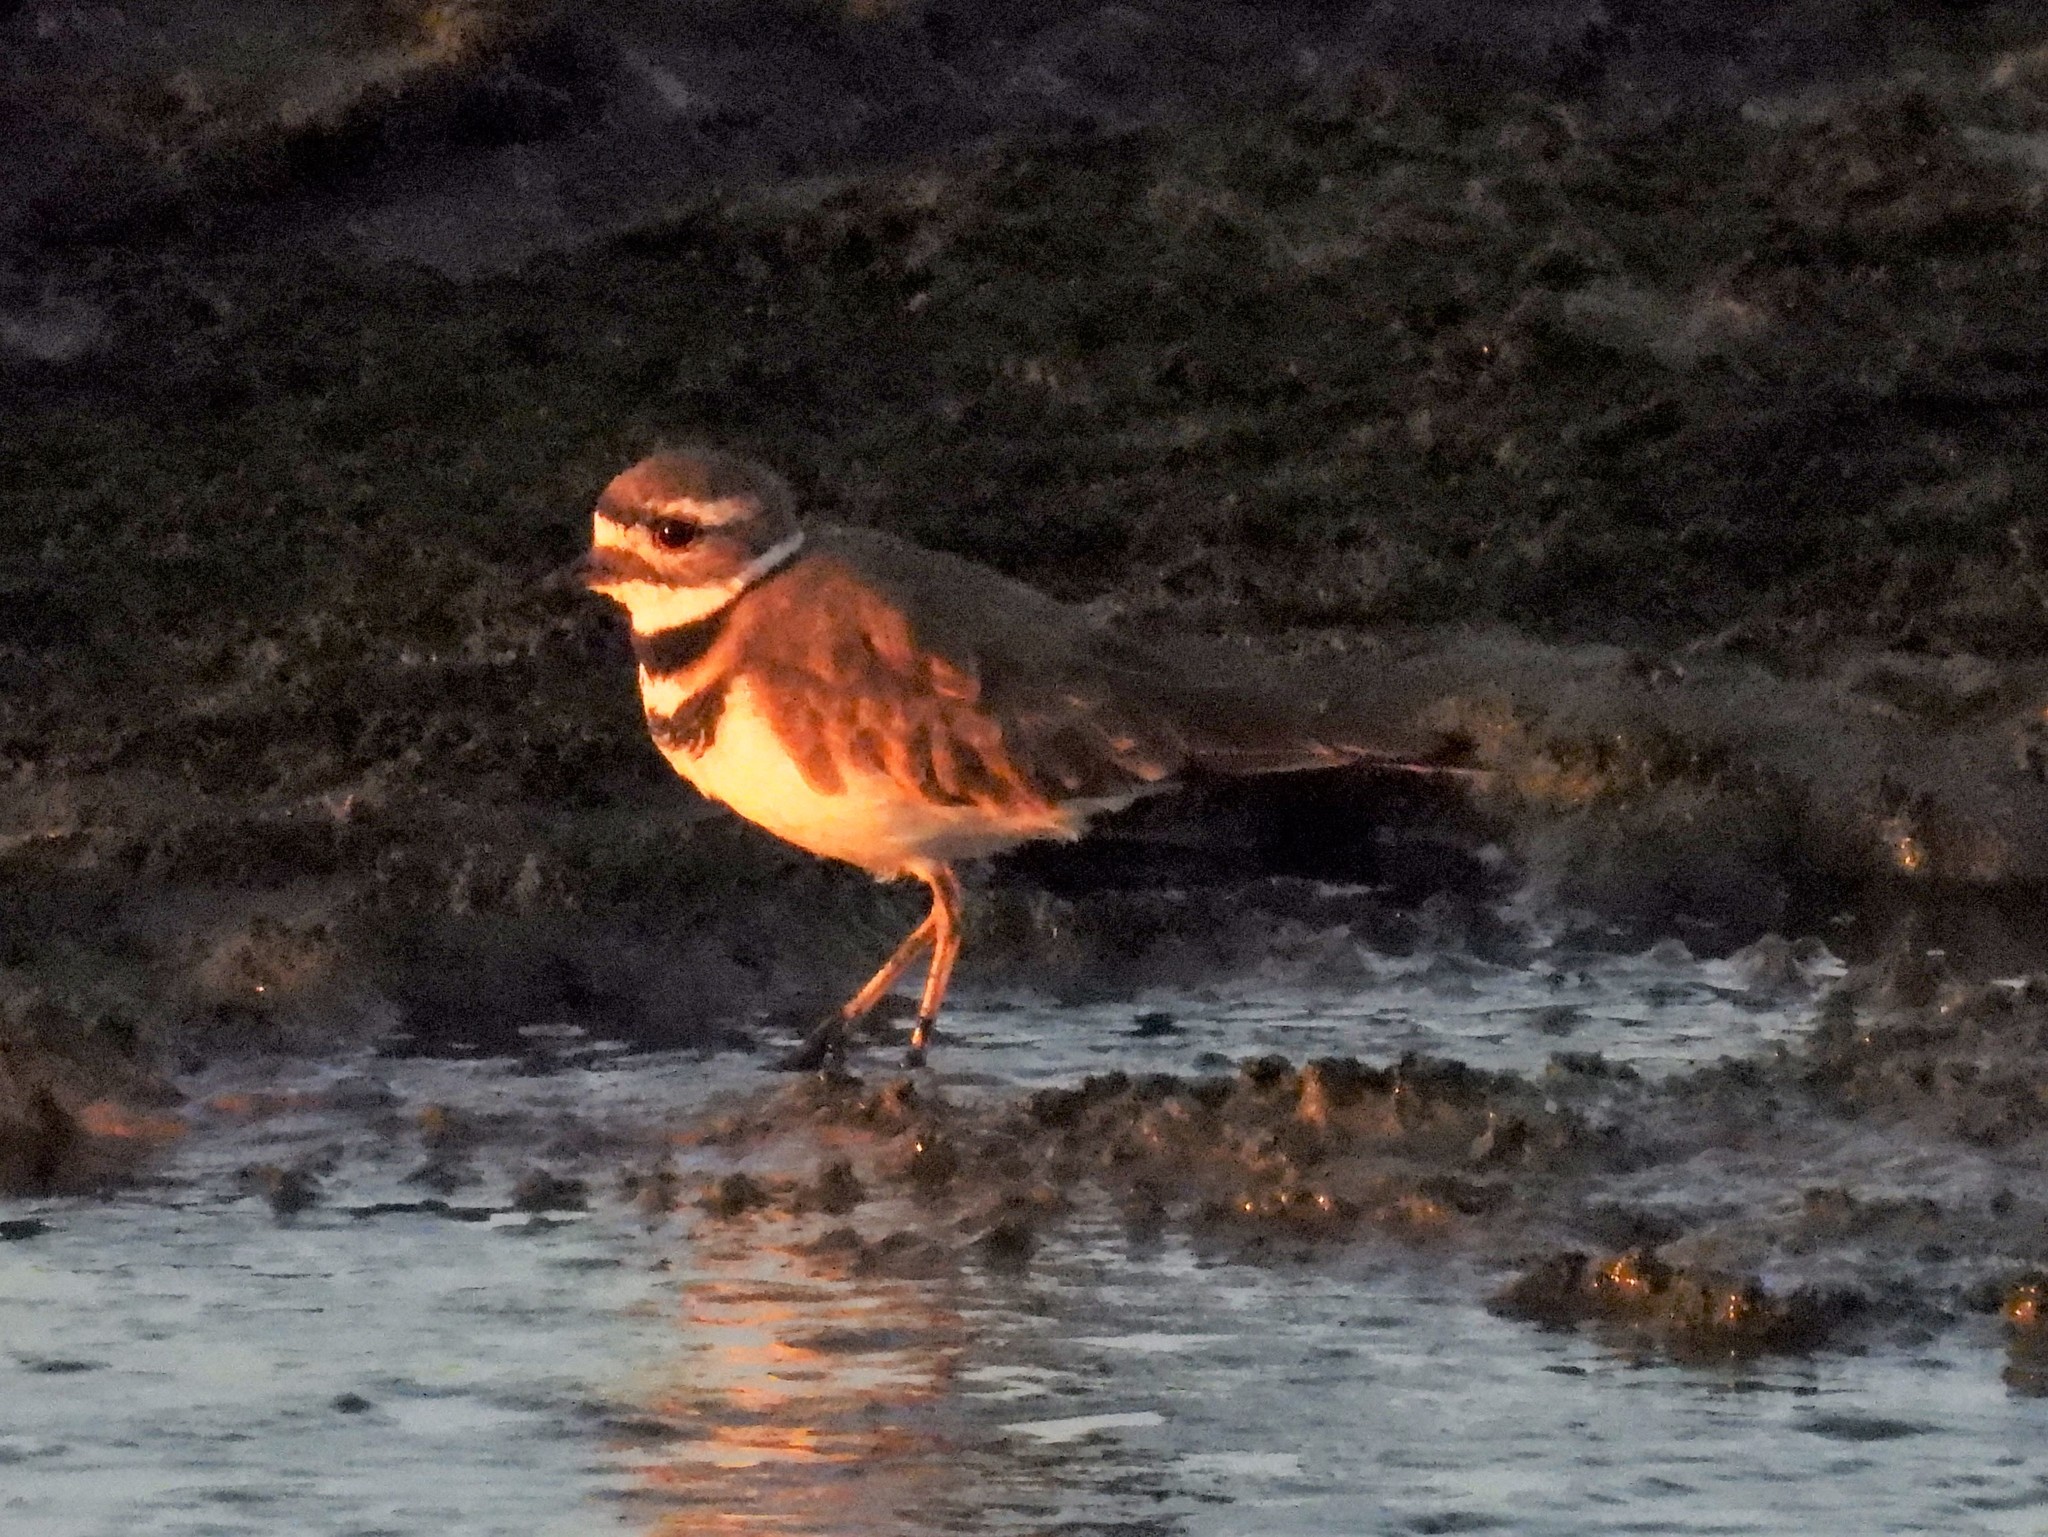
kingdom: Animalia
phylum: Chordata
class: Aves
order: Charadriiformes
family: Charadriidae
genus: Charadrius
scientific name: Charadrius vociferus
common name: Killdeer
